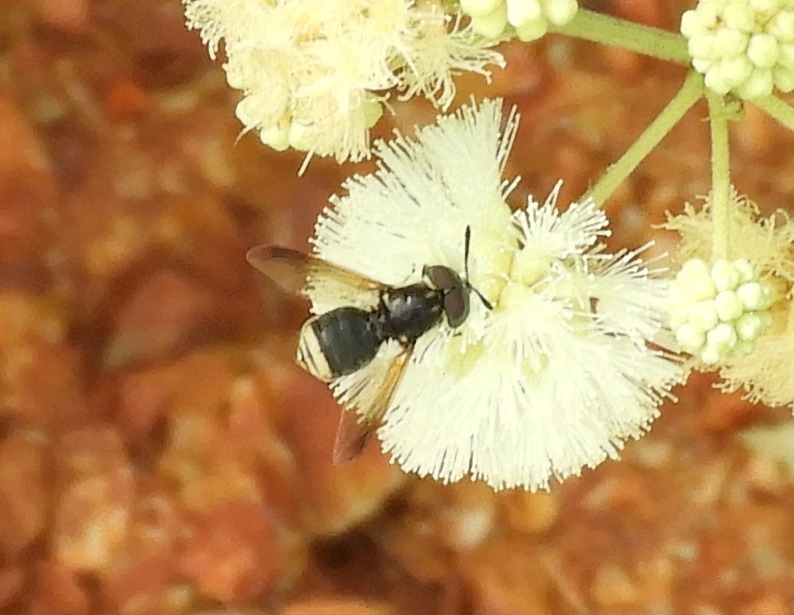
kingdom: Animalia
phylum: Arthropoda
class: Insecta
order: Diptera
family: Stratiomyidae
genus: Hoplitimyia
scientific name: Hoplitimyia mutabilis
